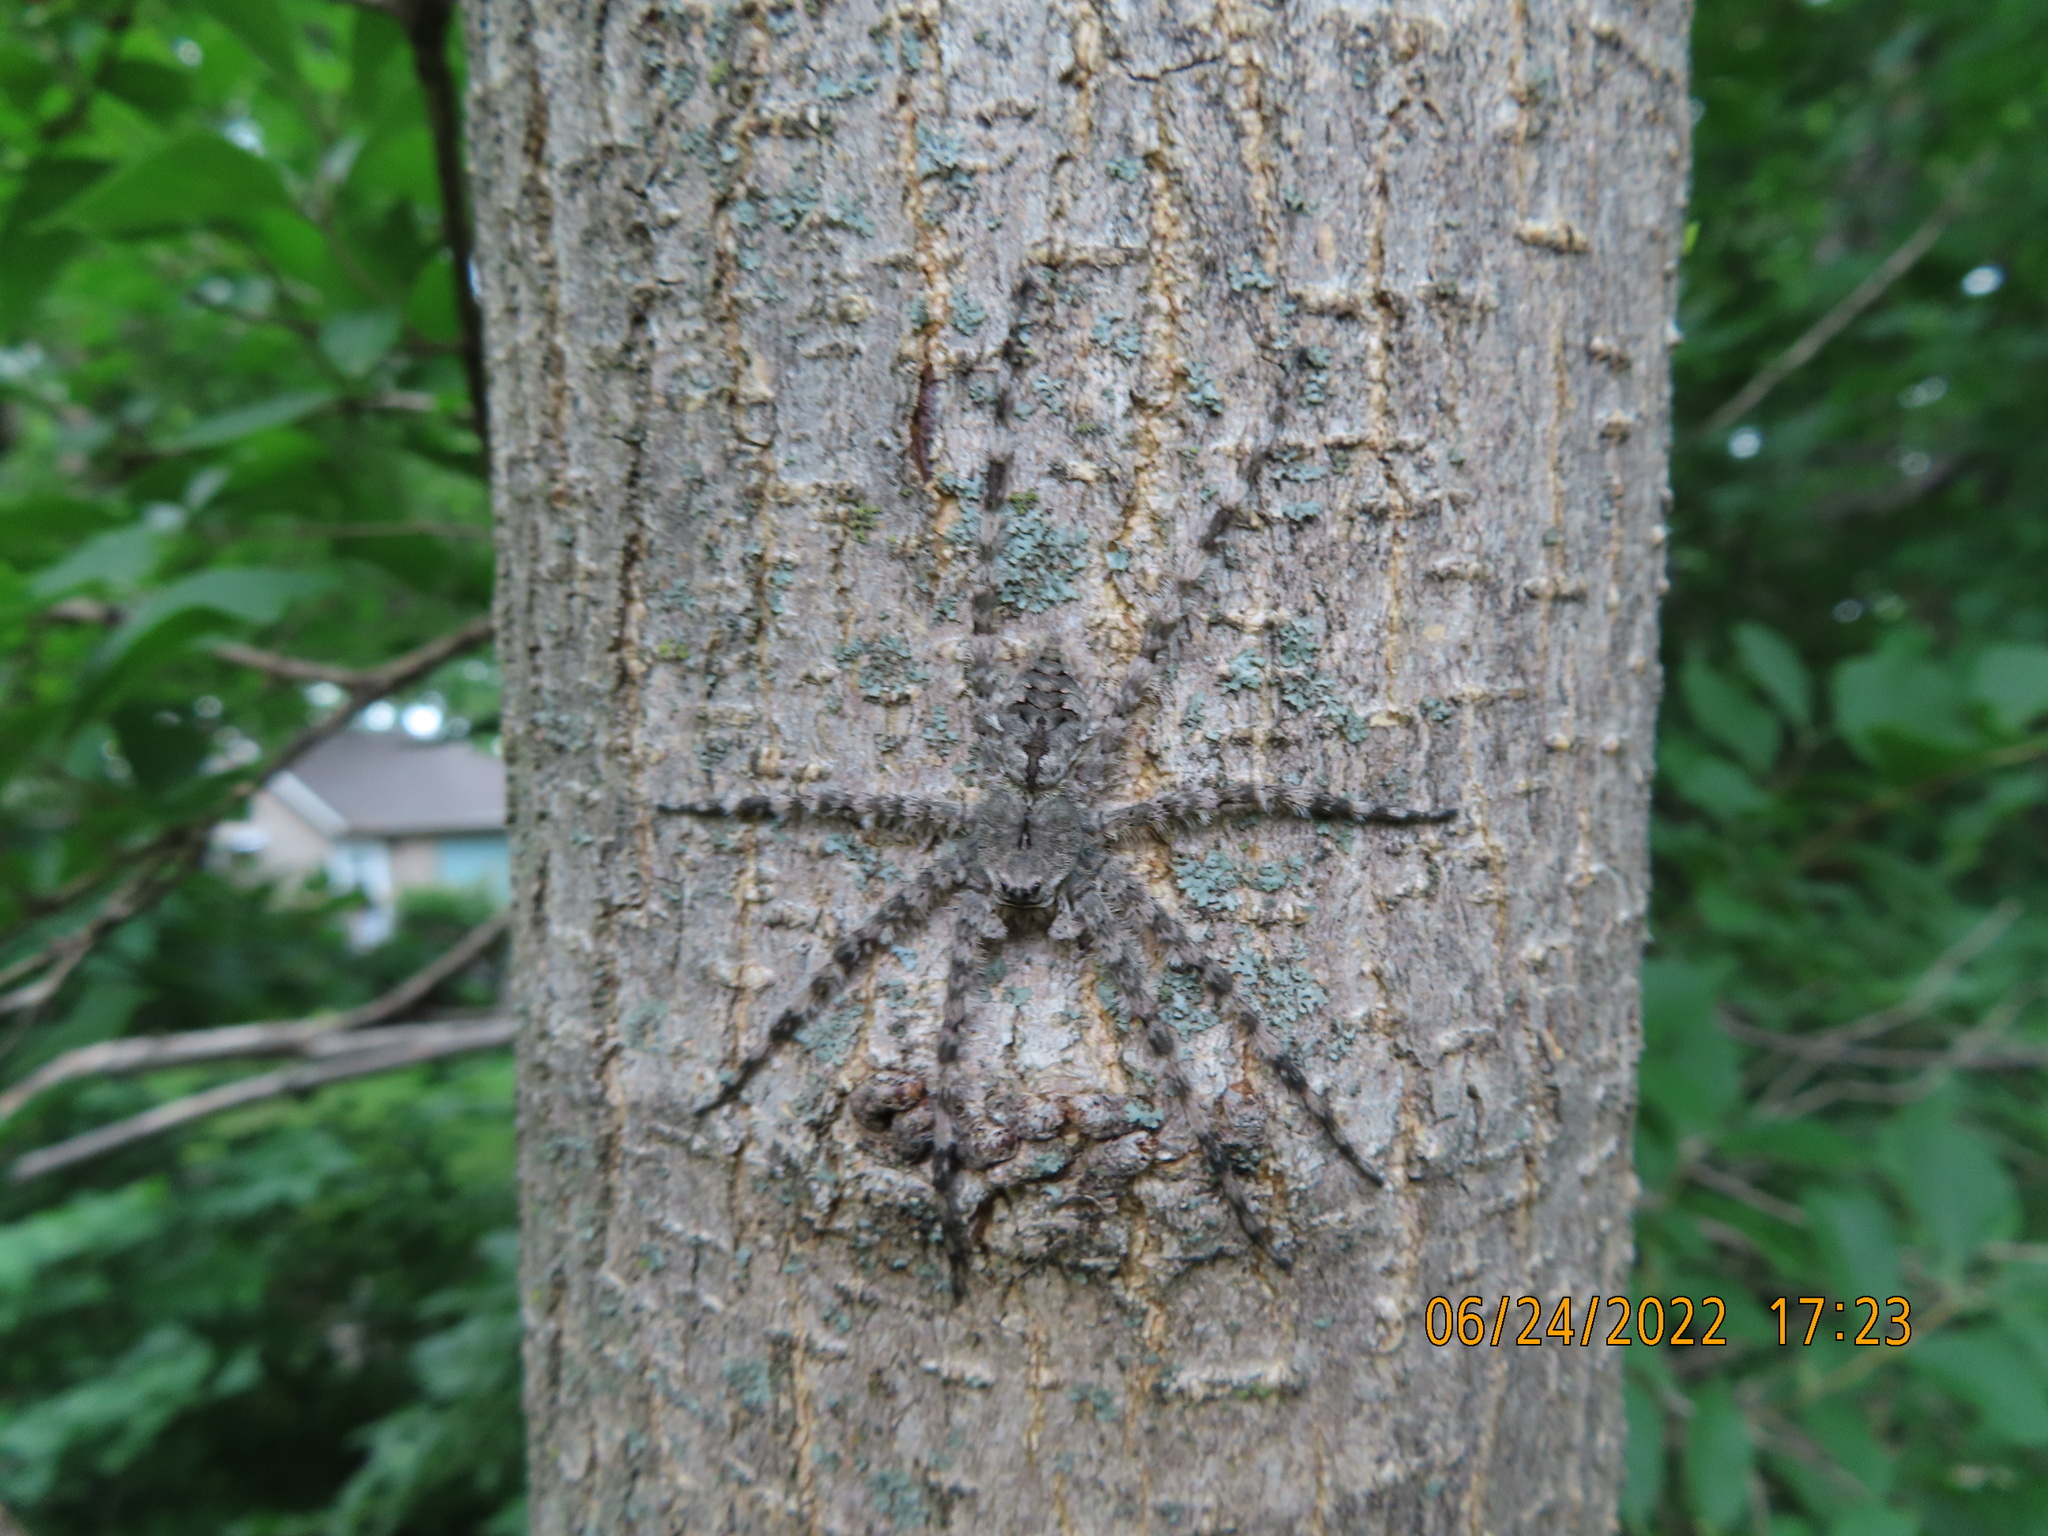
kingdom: Animalia
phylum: Arthropoda
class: Arachnida
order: Araneae
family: Pisauridae
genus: Dolomedes
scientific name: Dolomedes albineus
